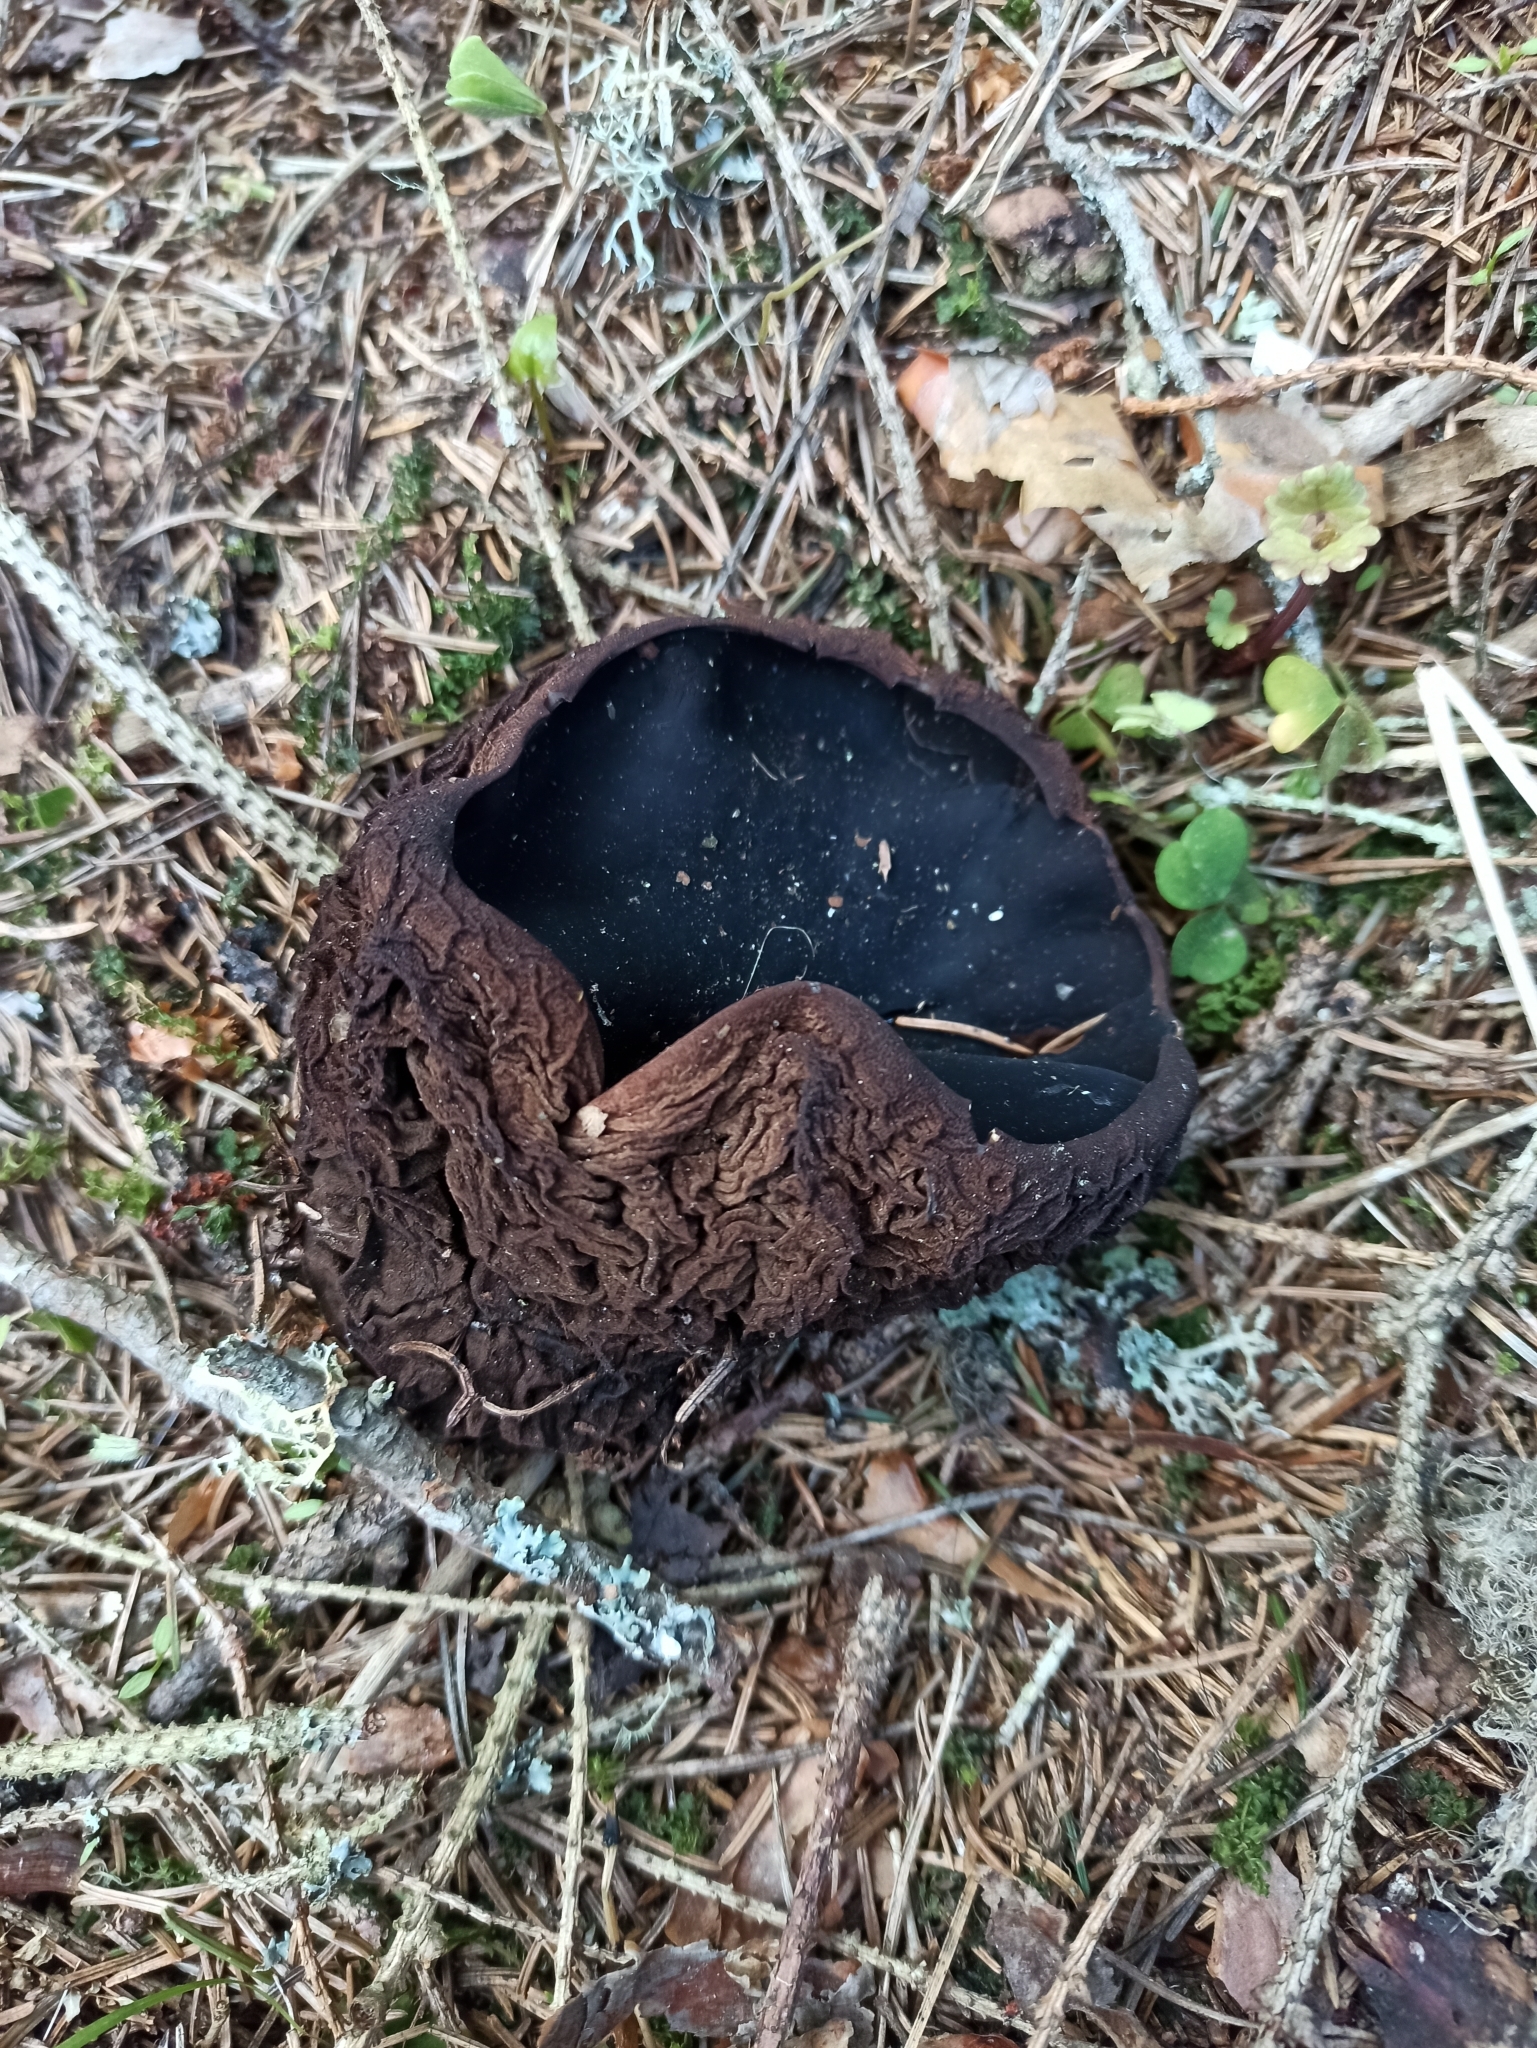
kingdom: Fungi
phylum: Ascomycota
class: Pezizomycetes
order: Pezizales
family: Sarcosomataceae
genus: Sarcosoma
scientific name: Sarcosoma globosum
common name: Charred-pancake cup
